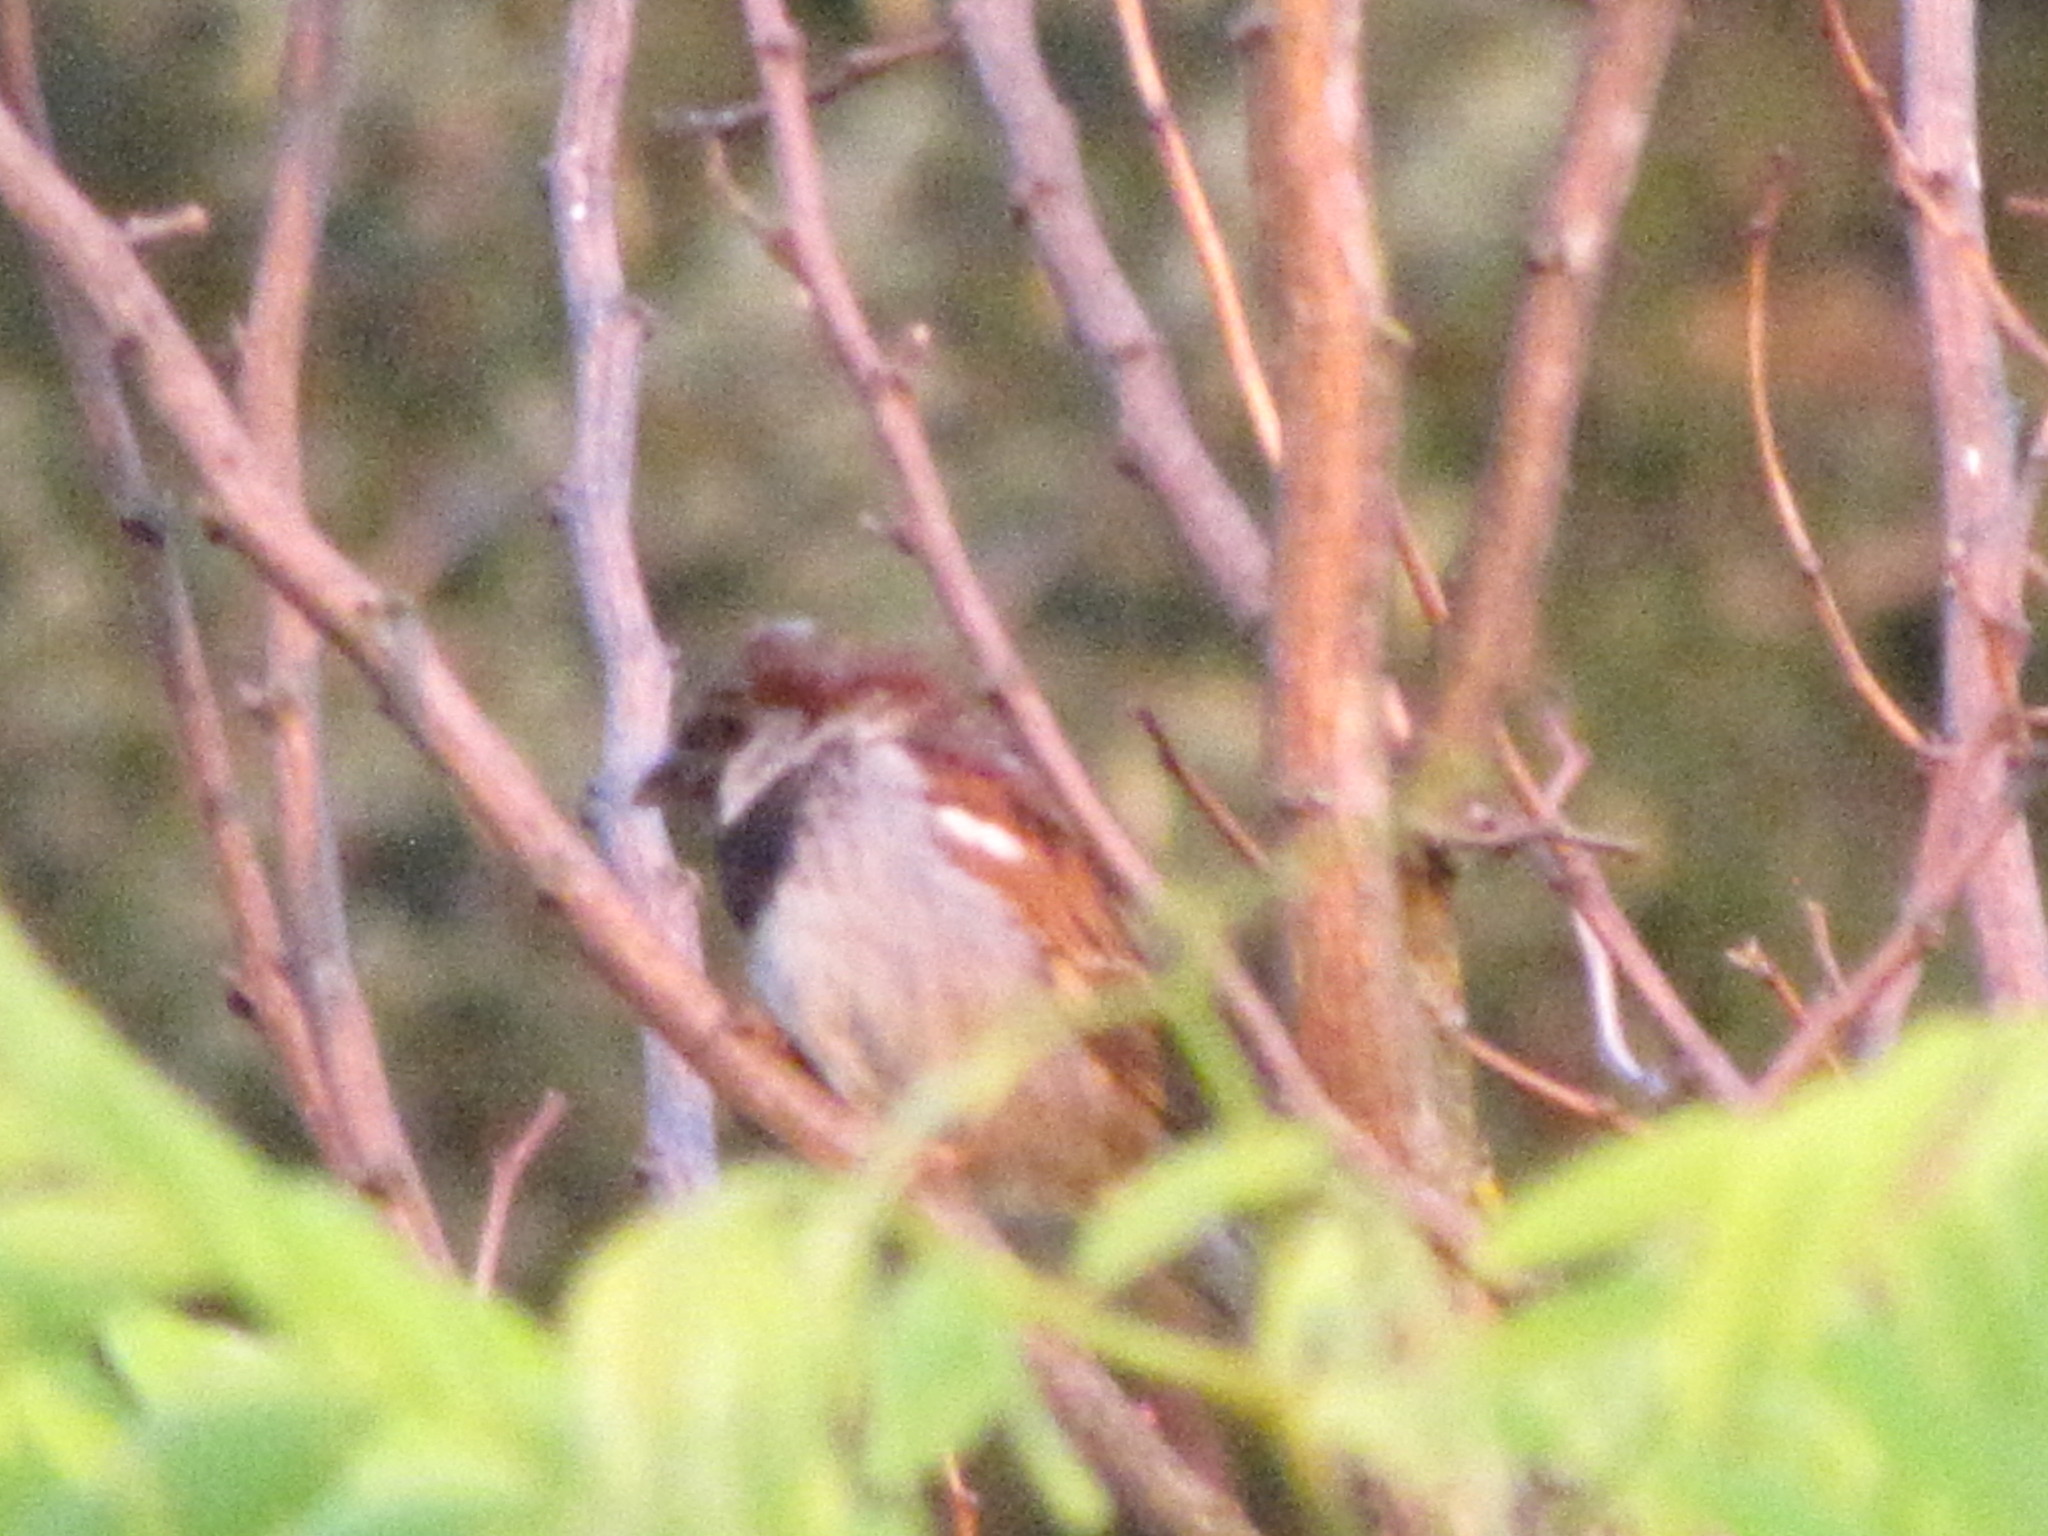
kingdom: Animalia
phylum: Chordata
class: Aves
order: Passeriformes
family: Passeridae
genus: Passer
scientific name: Passer domesticus
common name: House sparrow
